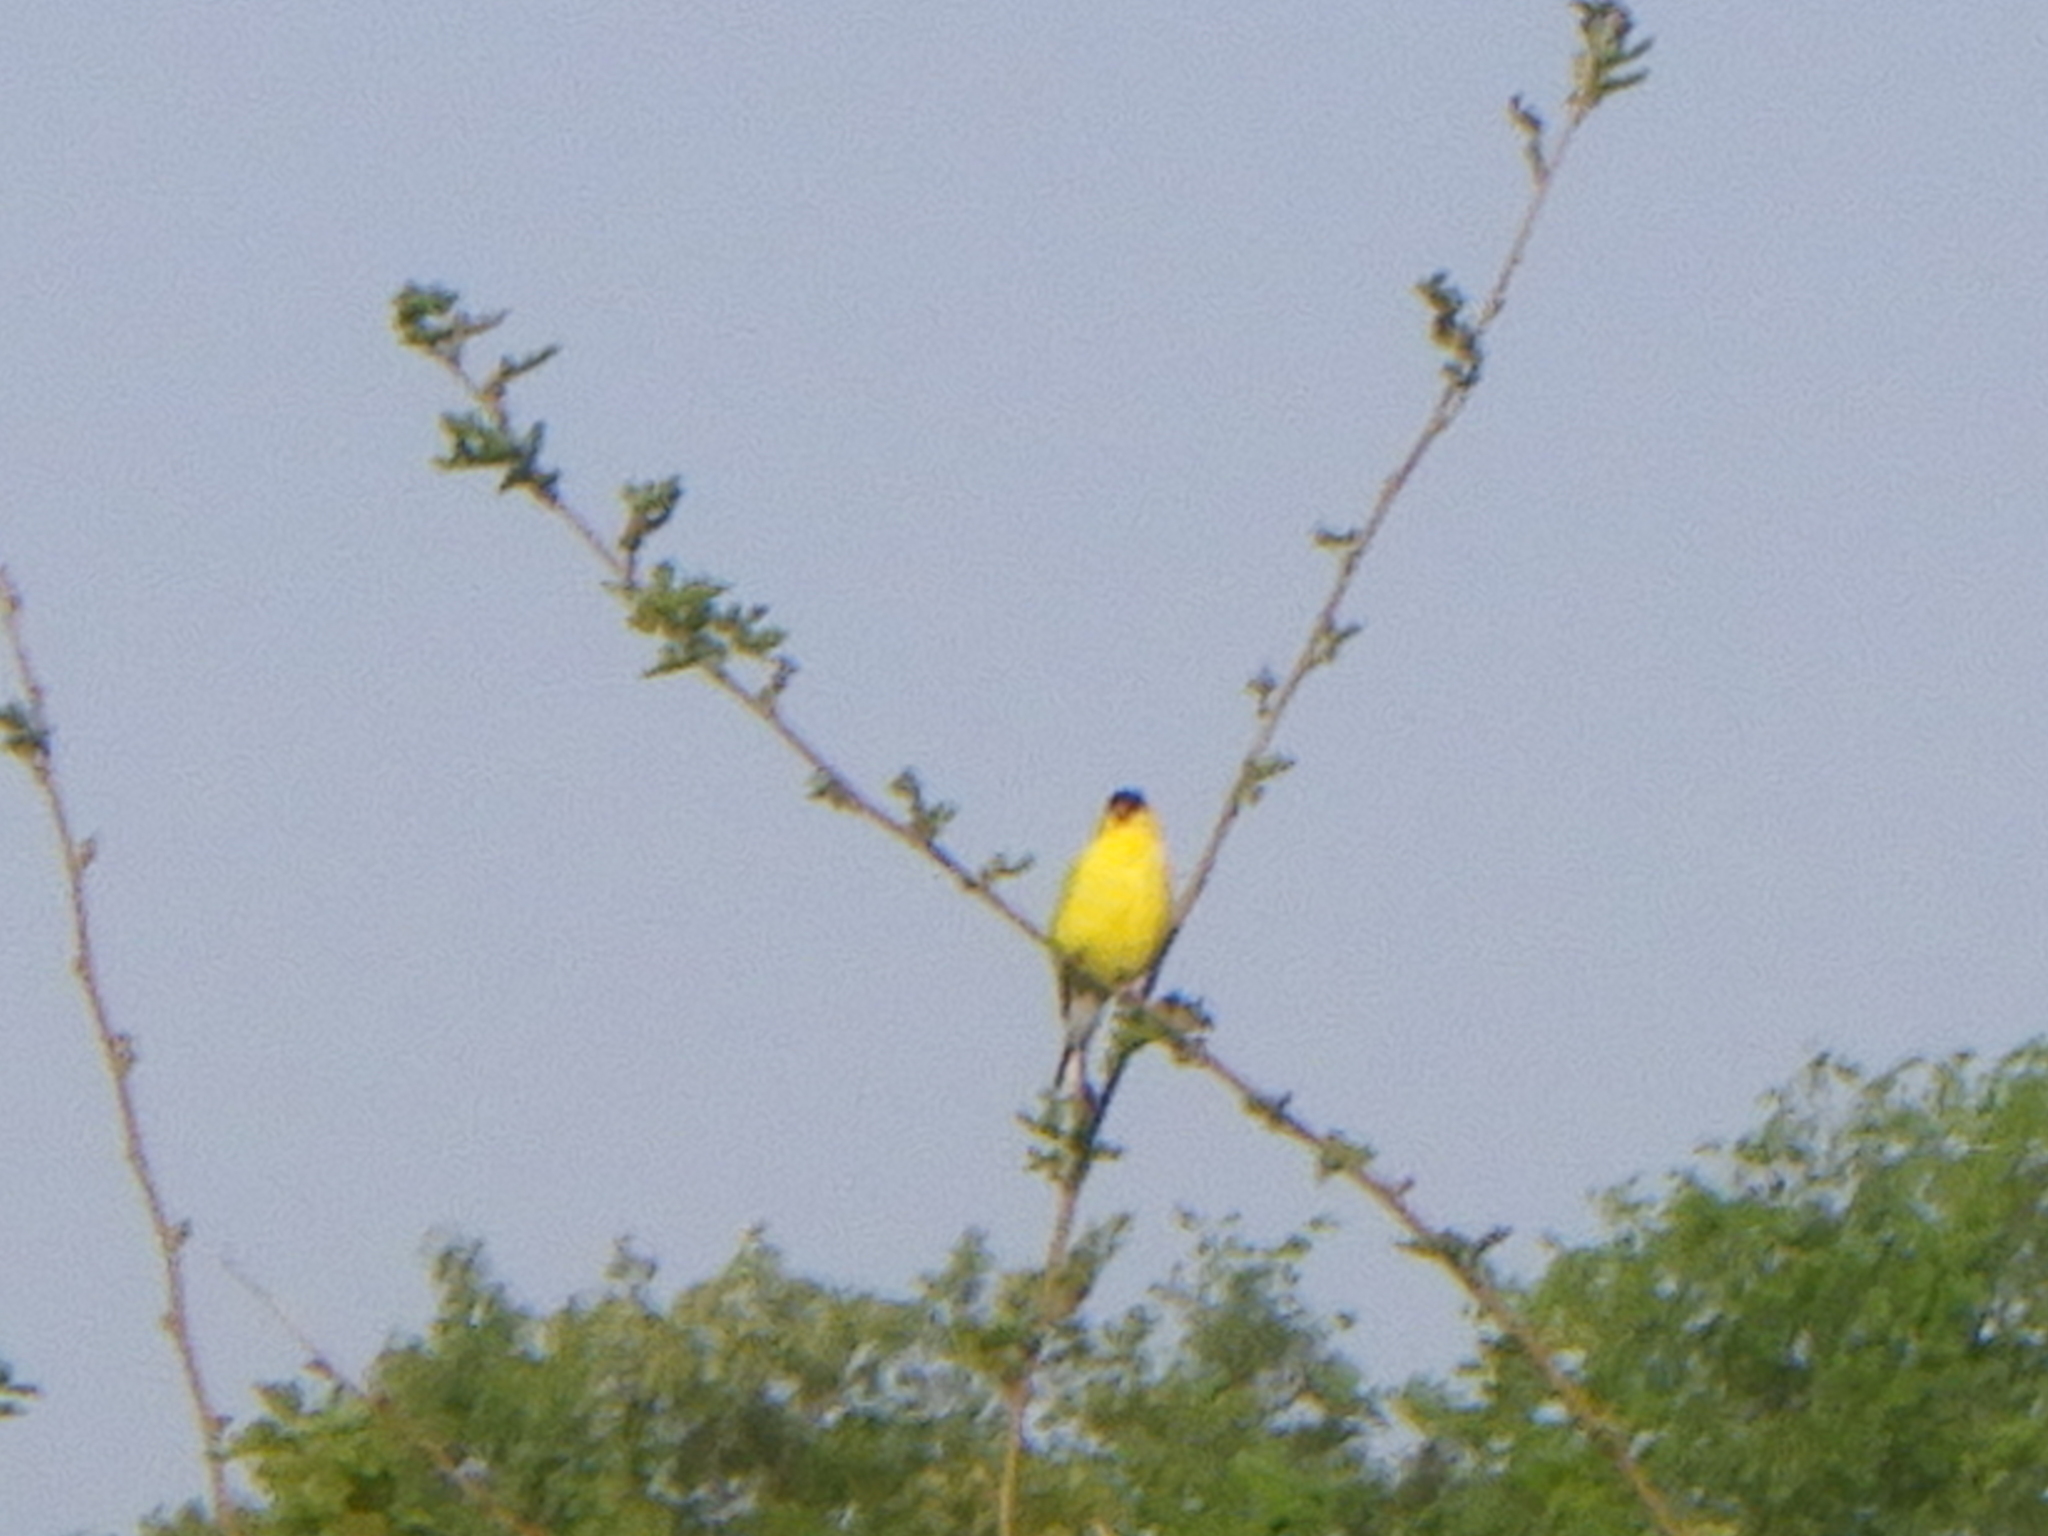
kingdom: Animalia
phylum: Chordata
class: Aves
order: Passeriformes
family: Fringillidae
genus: Spinus
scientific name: Spinus tristis
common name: American goldfinch
